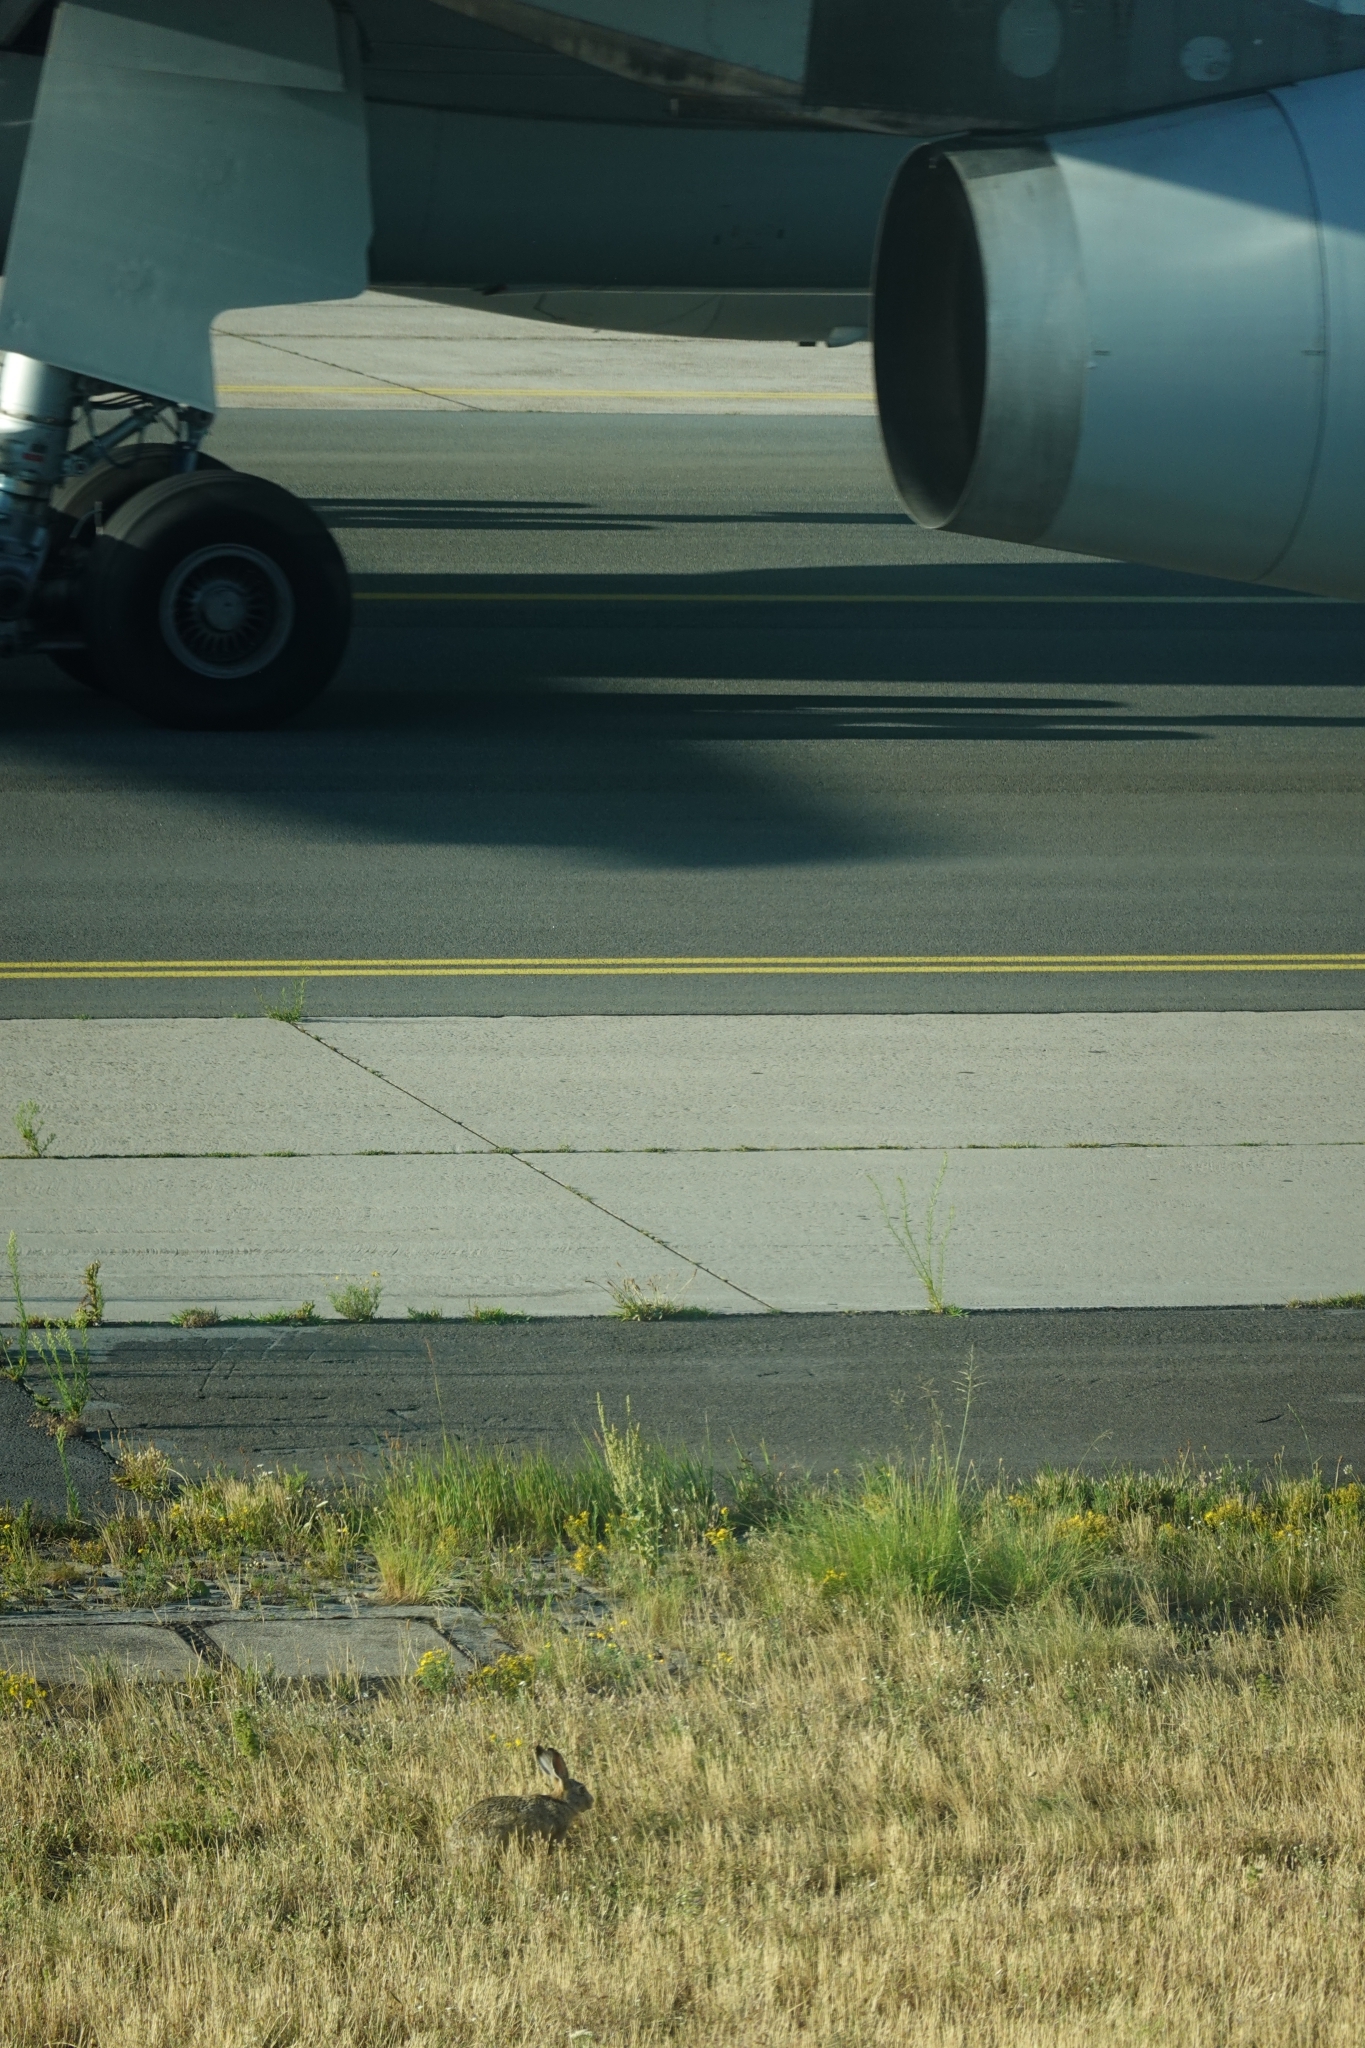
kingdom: Animalia
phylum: Chordata
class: Mammalia
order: Lagomorpha
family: Leporidae
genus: Lepus
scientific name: Lepus europaeus
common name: European hare
